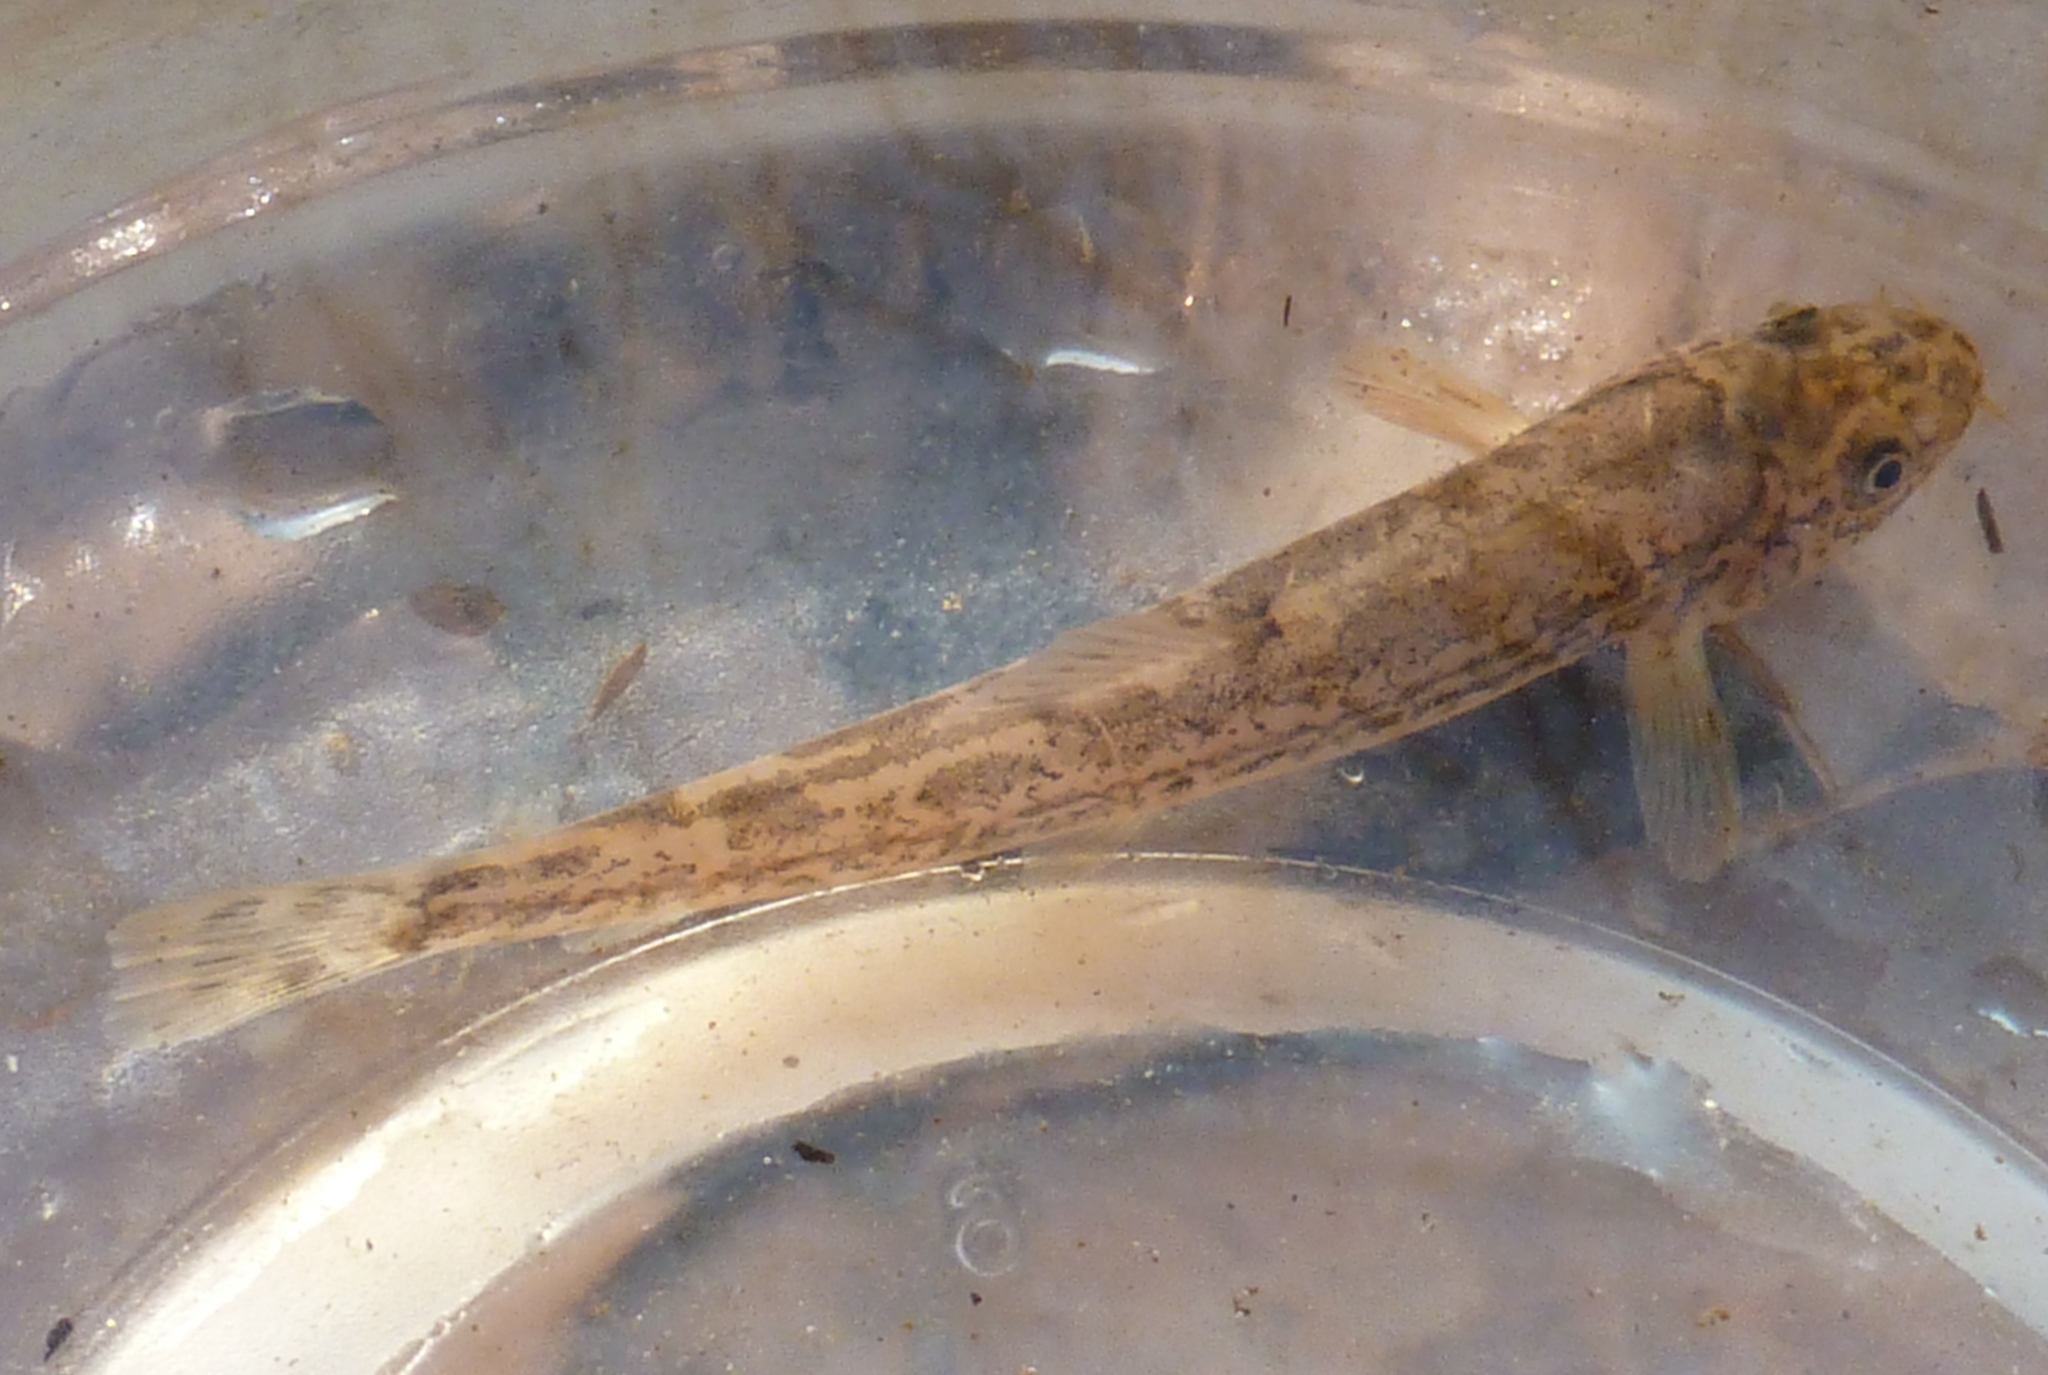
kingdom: Animalia
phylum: Chordata
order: Cypriniformes
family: Nemacheilidae
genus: Oxynoemacheilus
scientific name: Oxynoemacheilus insignis
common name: Palestine loach
